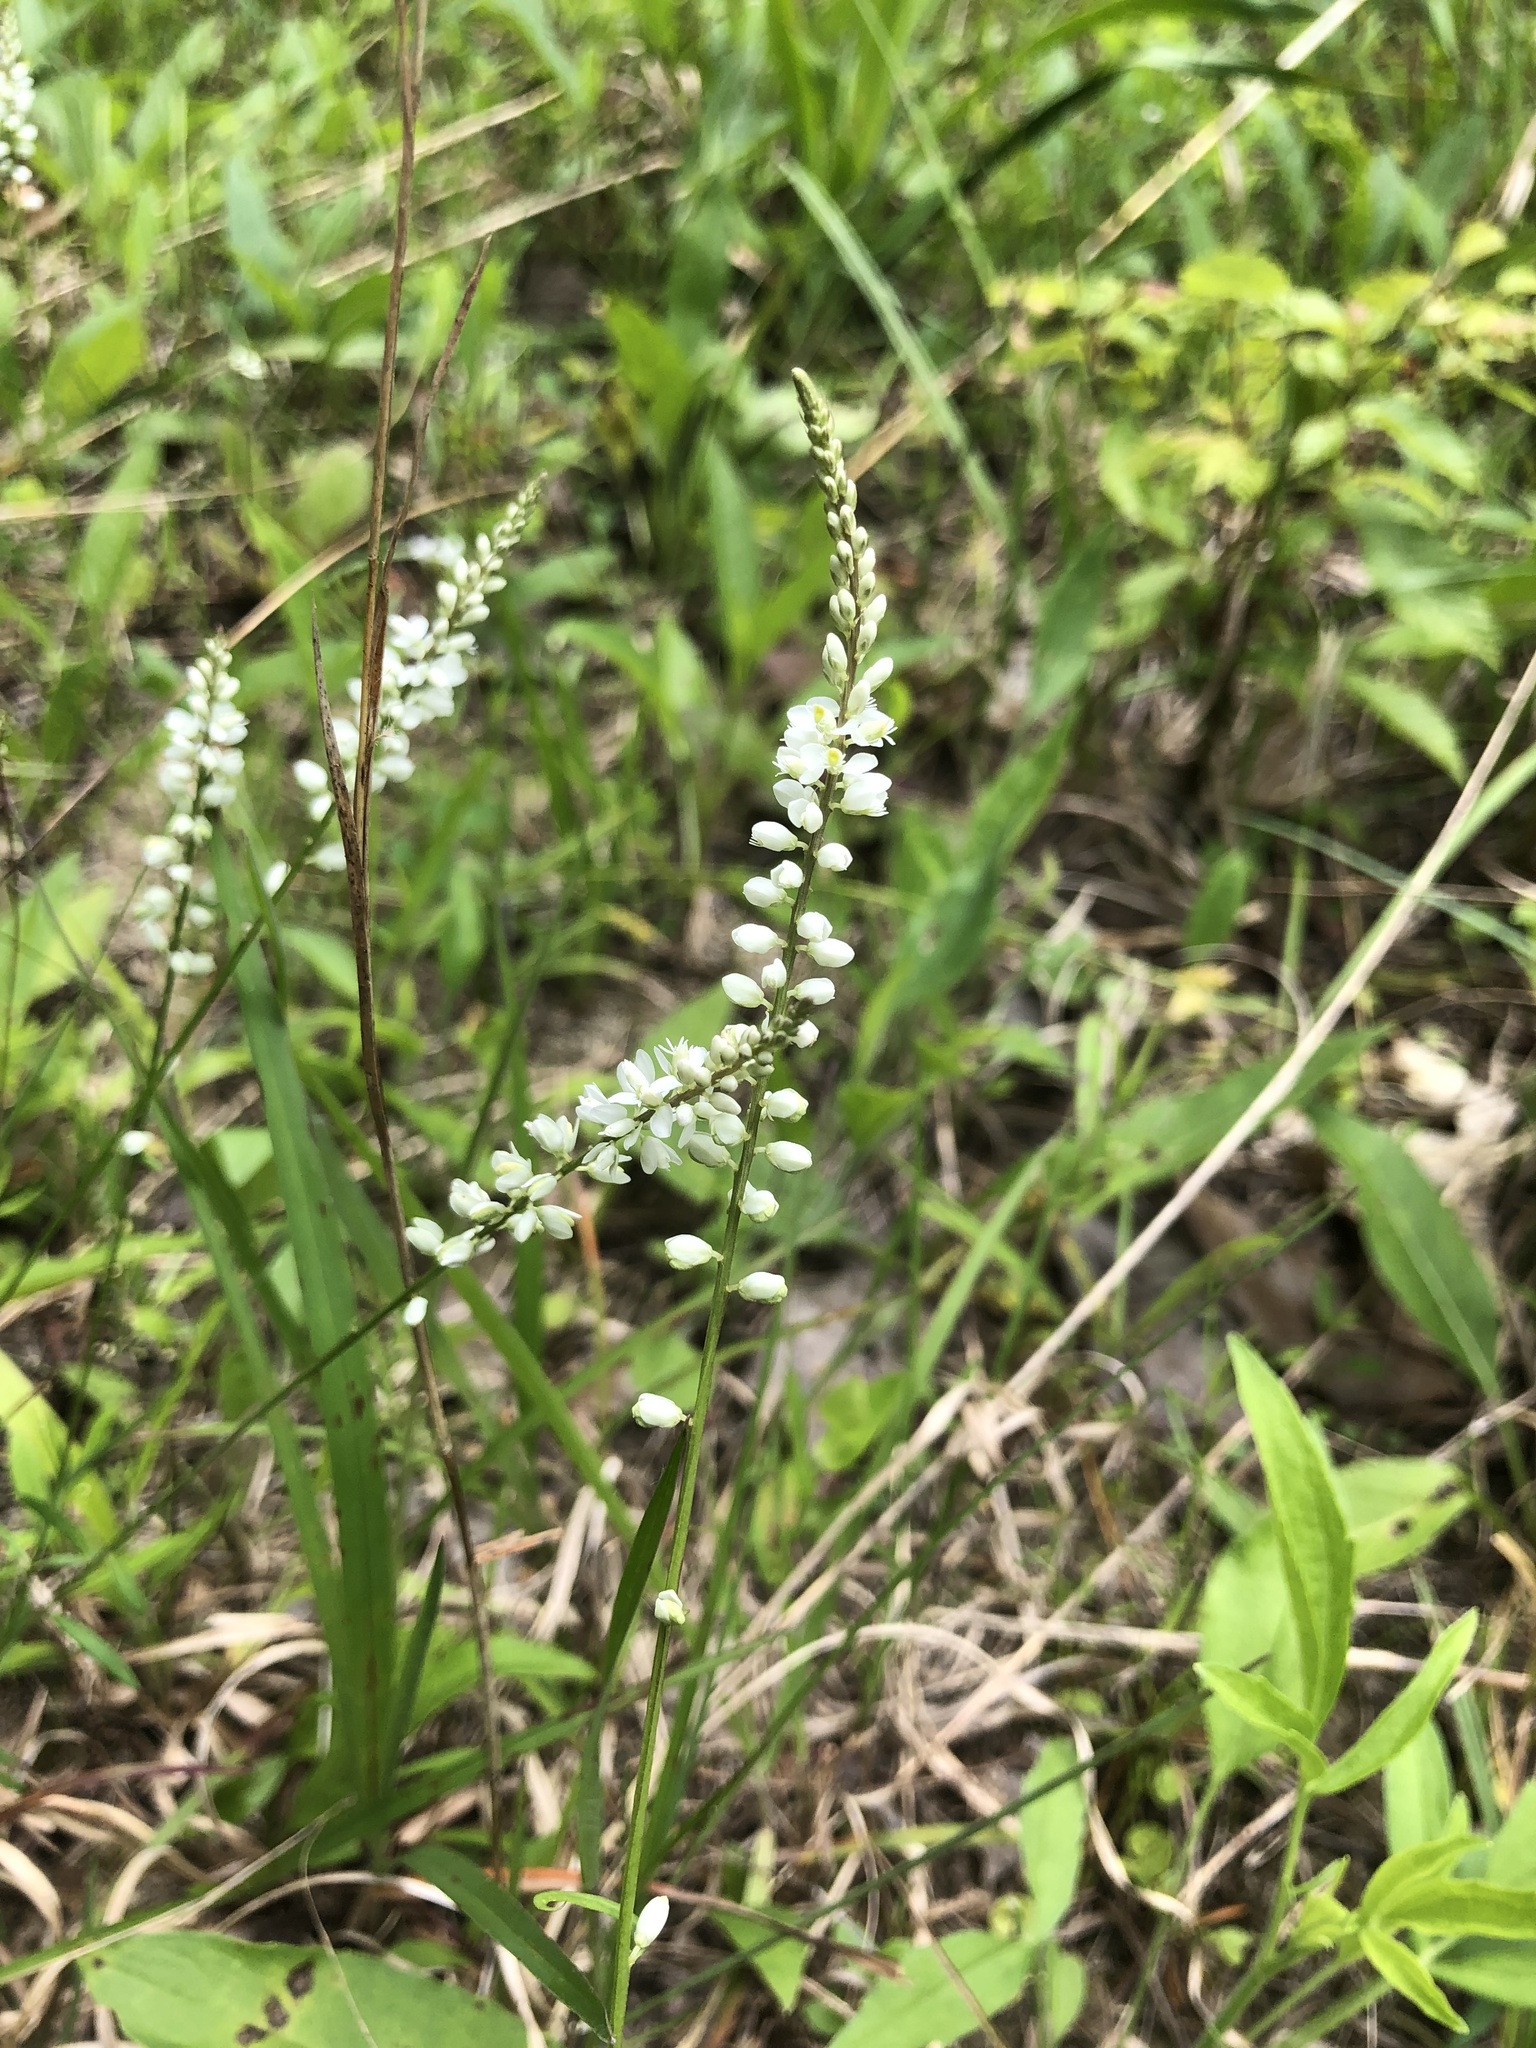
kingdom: Plantae
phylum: Tracheophyta
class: Magnoliopsida
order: Fabales
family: Polygalaceae
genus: Polygala
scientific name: Polygala boykinii
